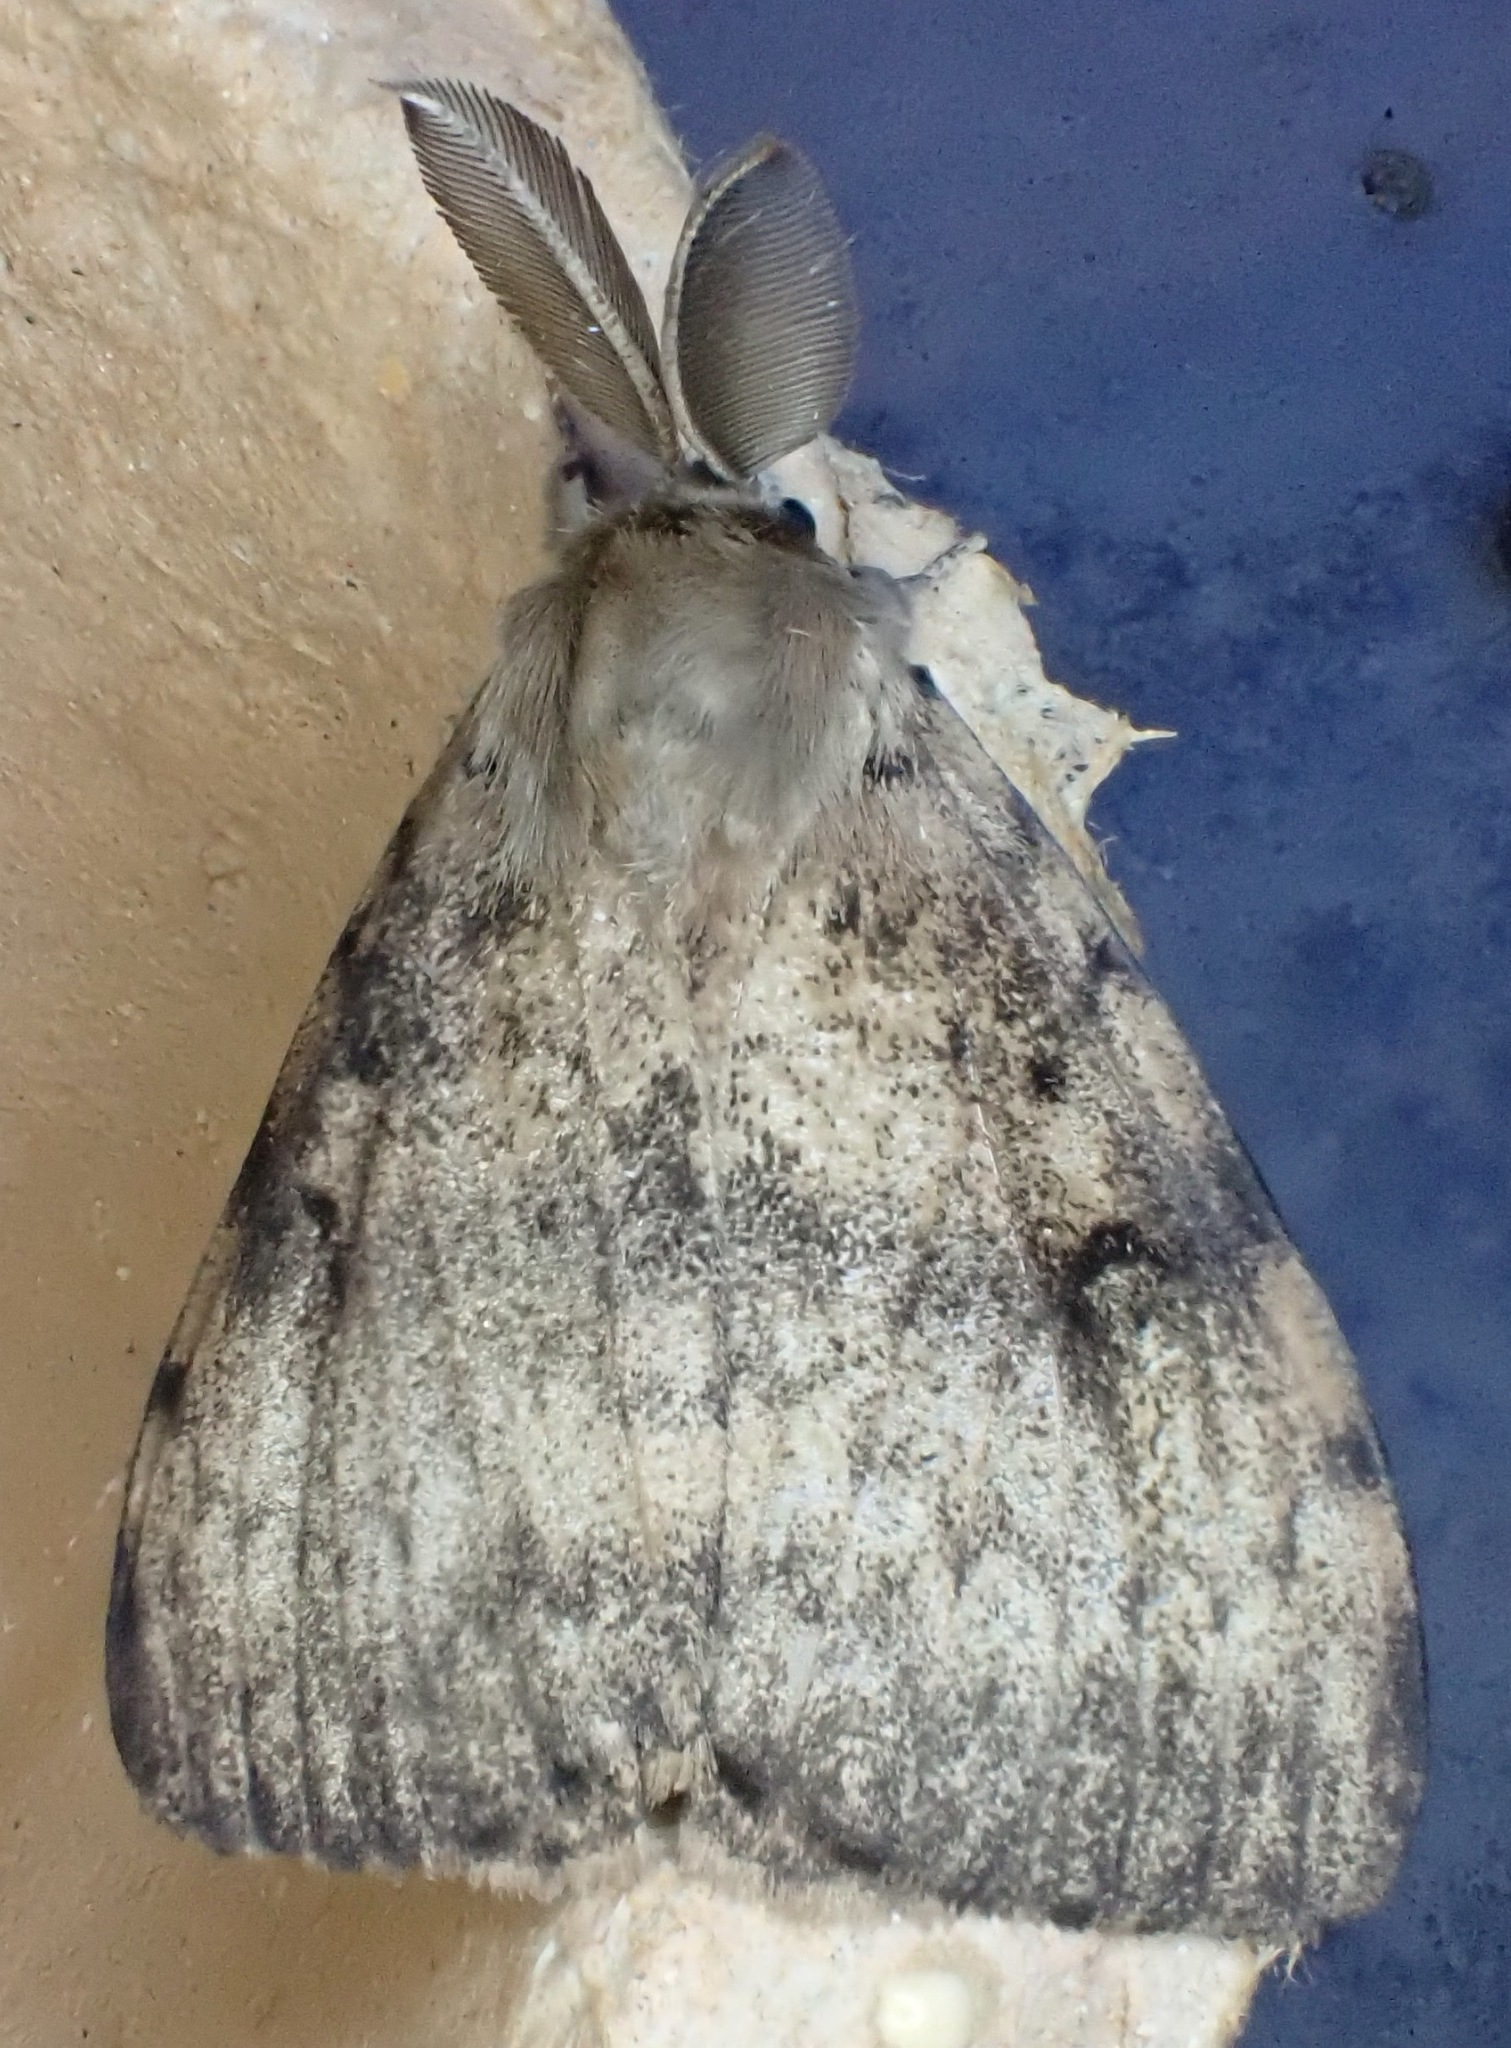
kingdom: Animalia
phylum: Arthropoda
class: Insecta
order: Lepidoptera
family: Erebidae
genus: Lymantria
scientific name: Lymantria dispar
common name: Gypsy moth
